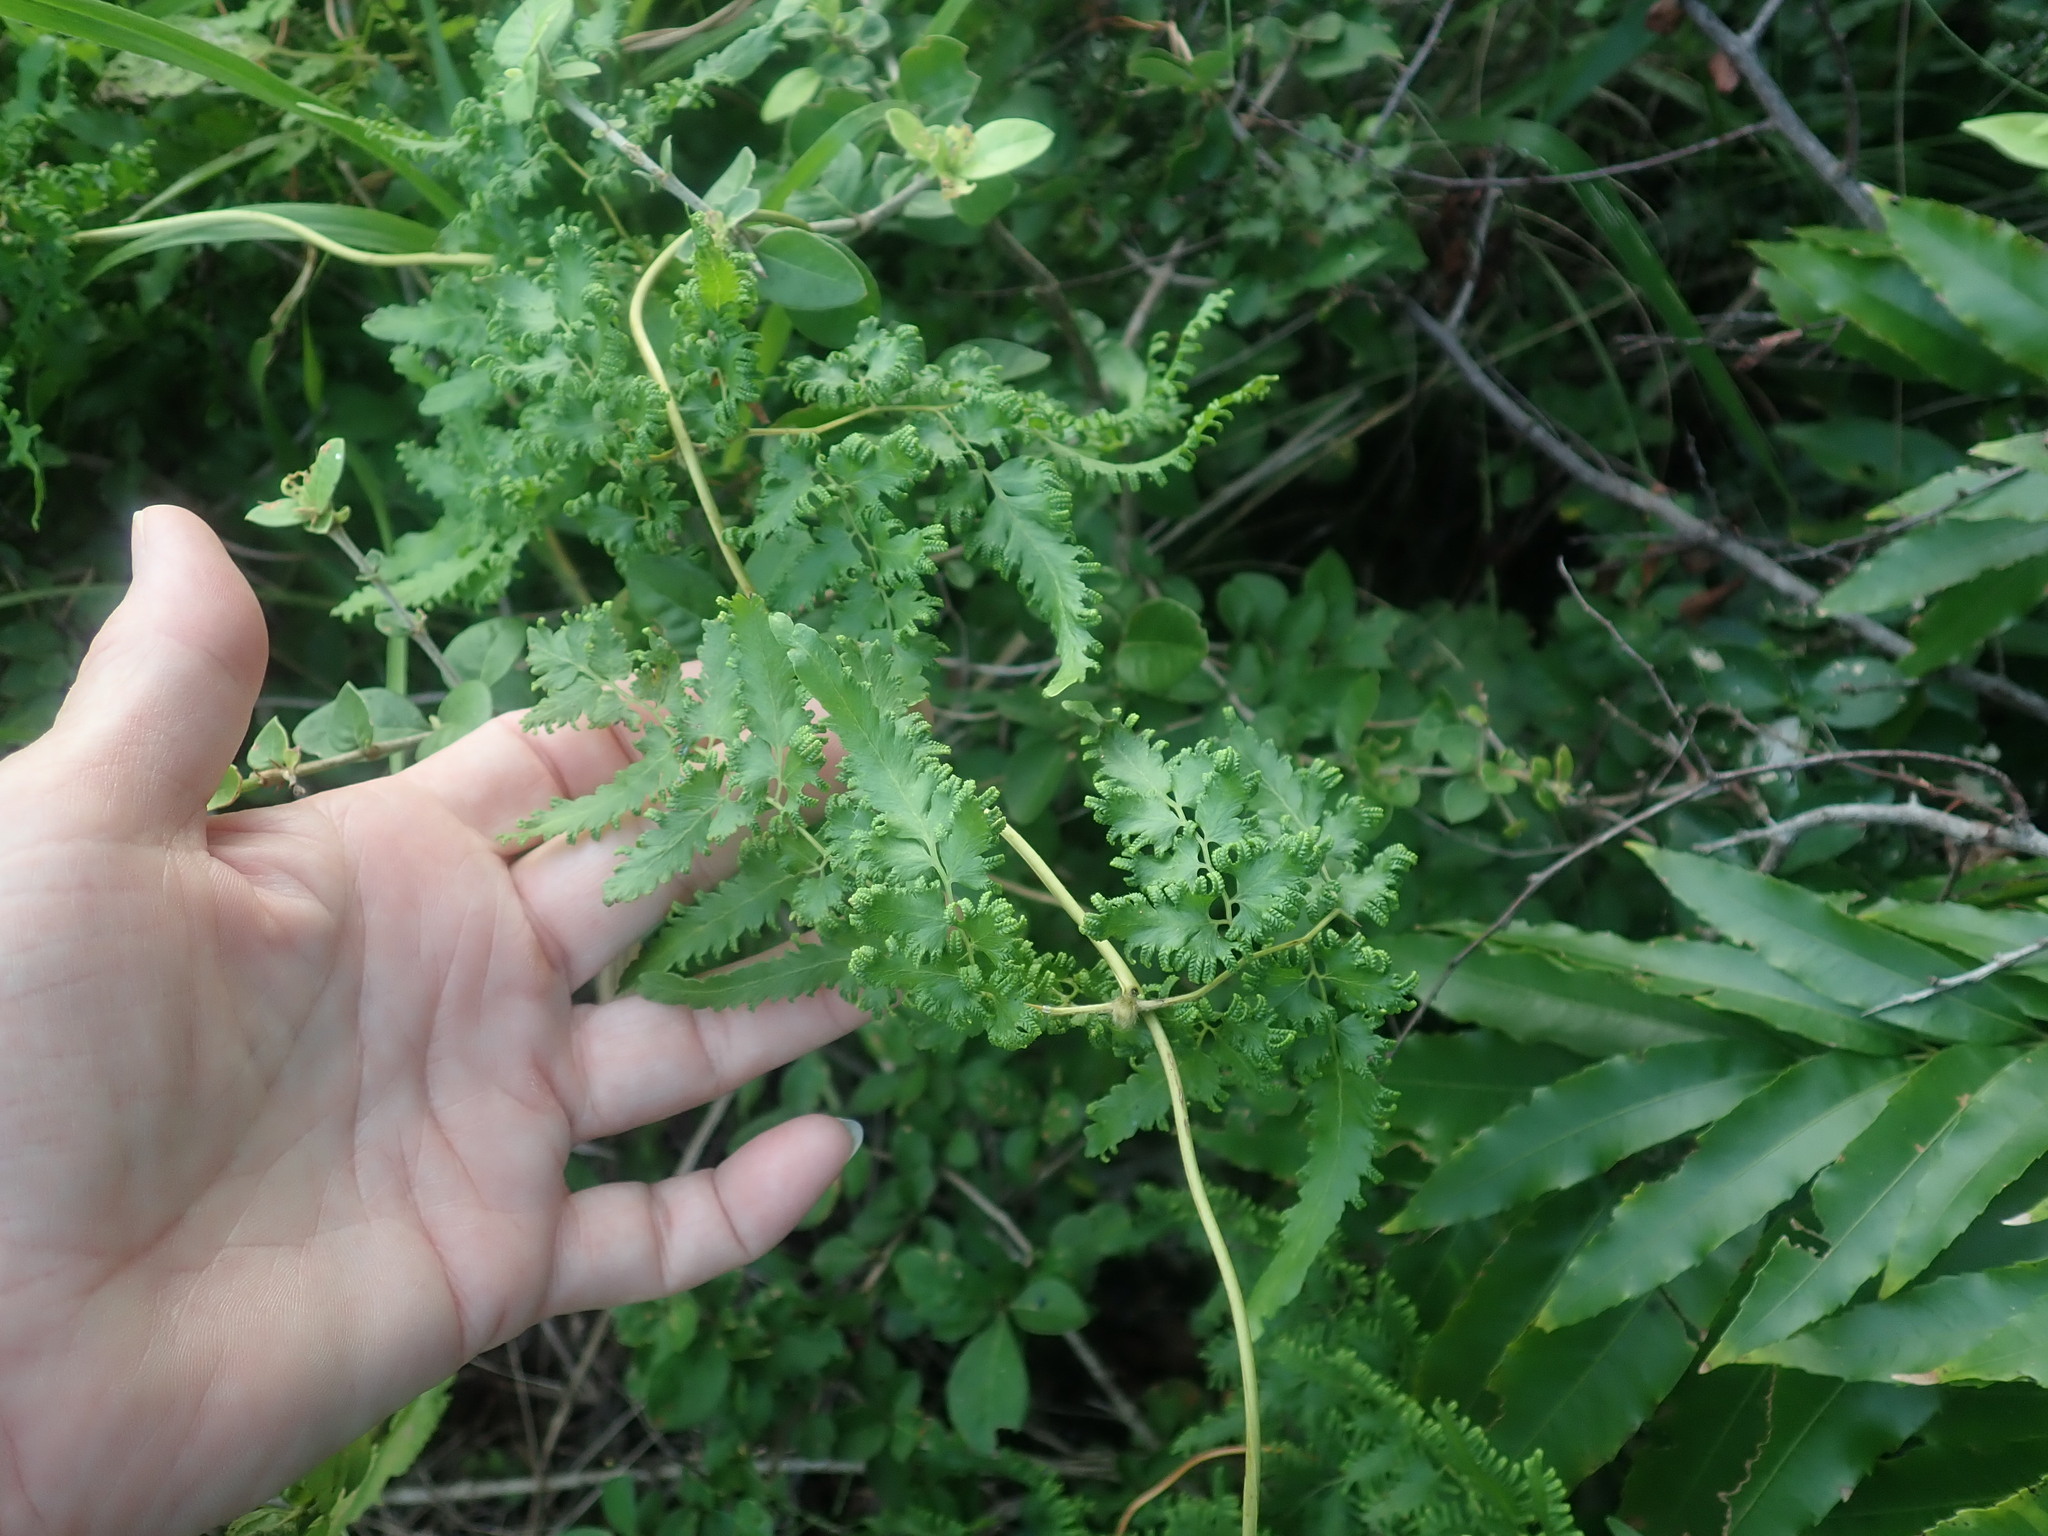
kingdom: Plantae
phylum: Tracheophyta
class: Polypodiopsida
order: Schizaeales
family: Lygodiaceae
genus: Lygodium
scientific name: Lygodium japonicum
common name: Japanese climbing fern
